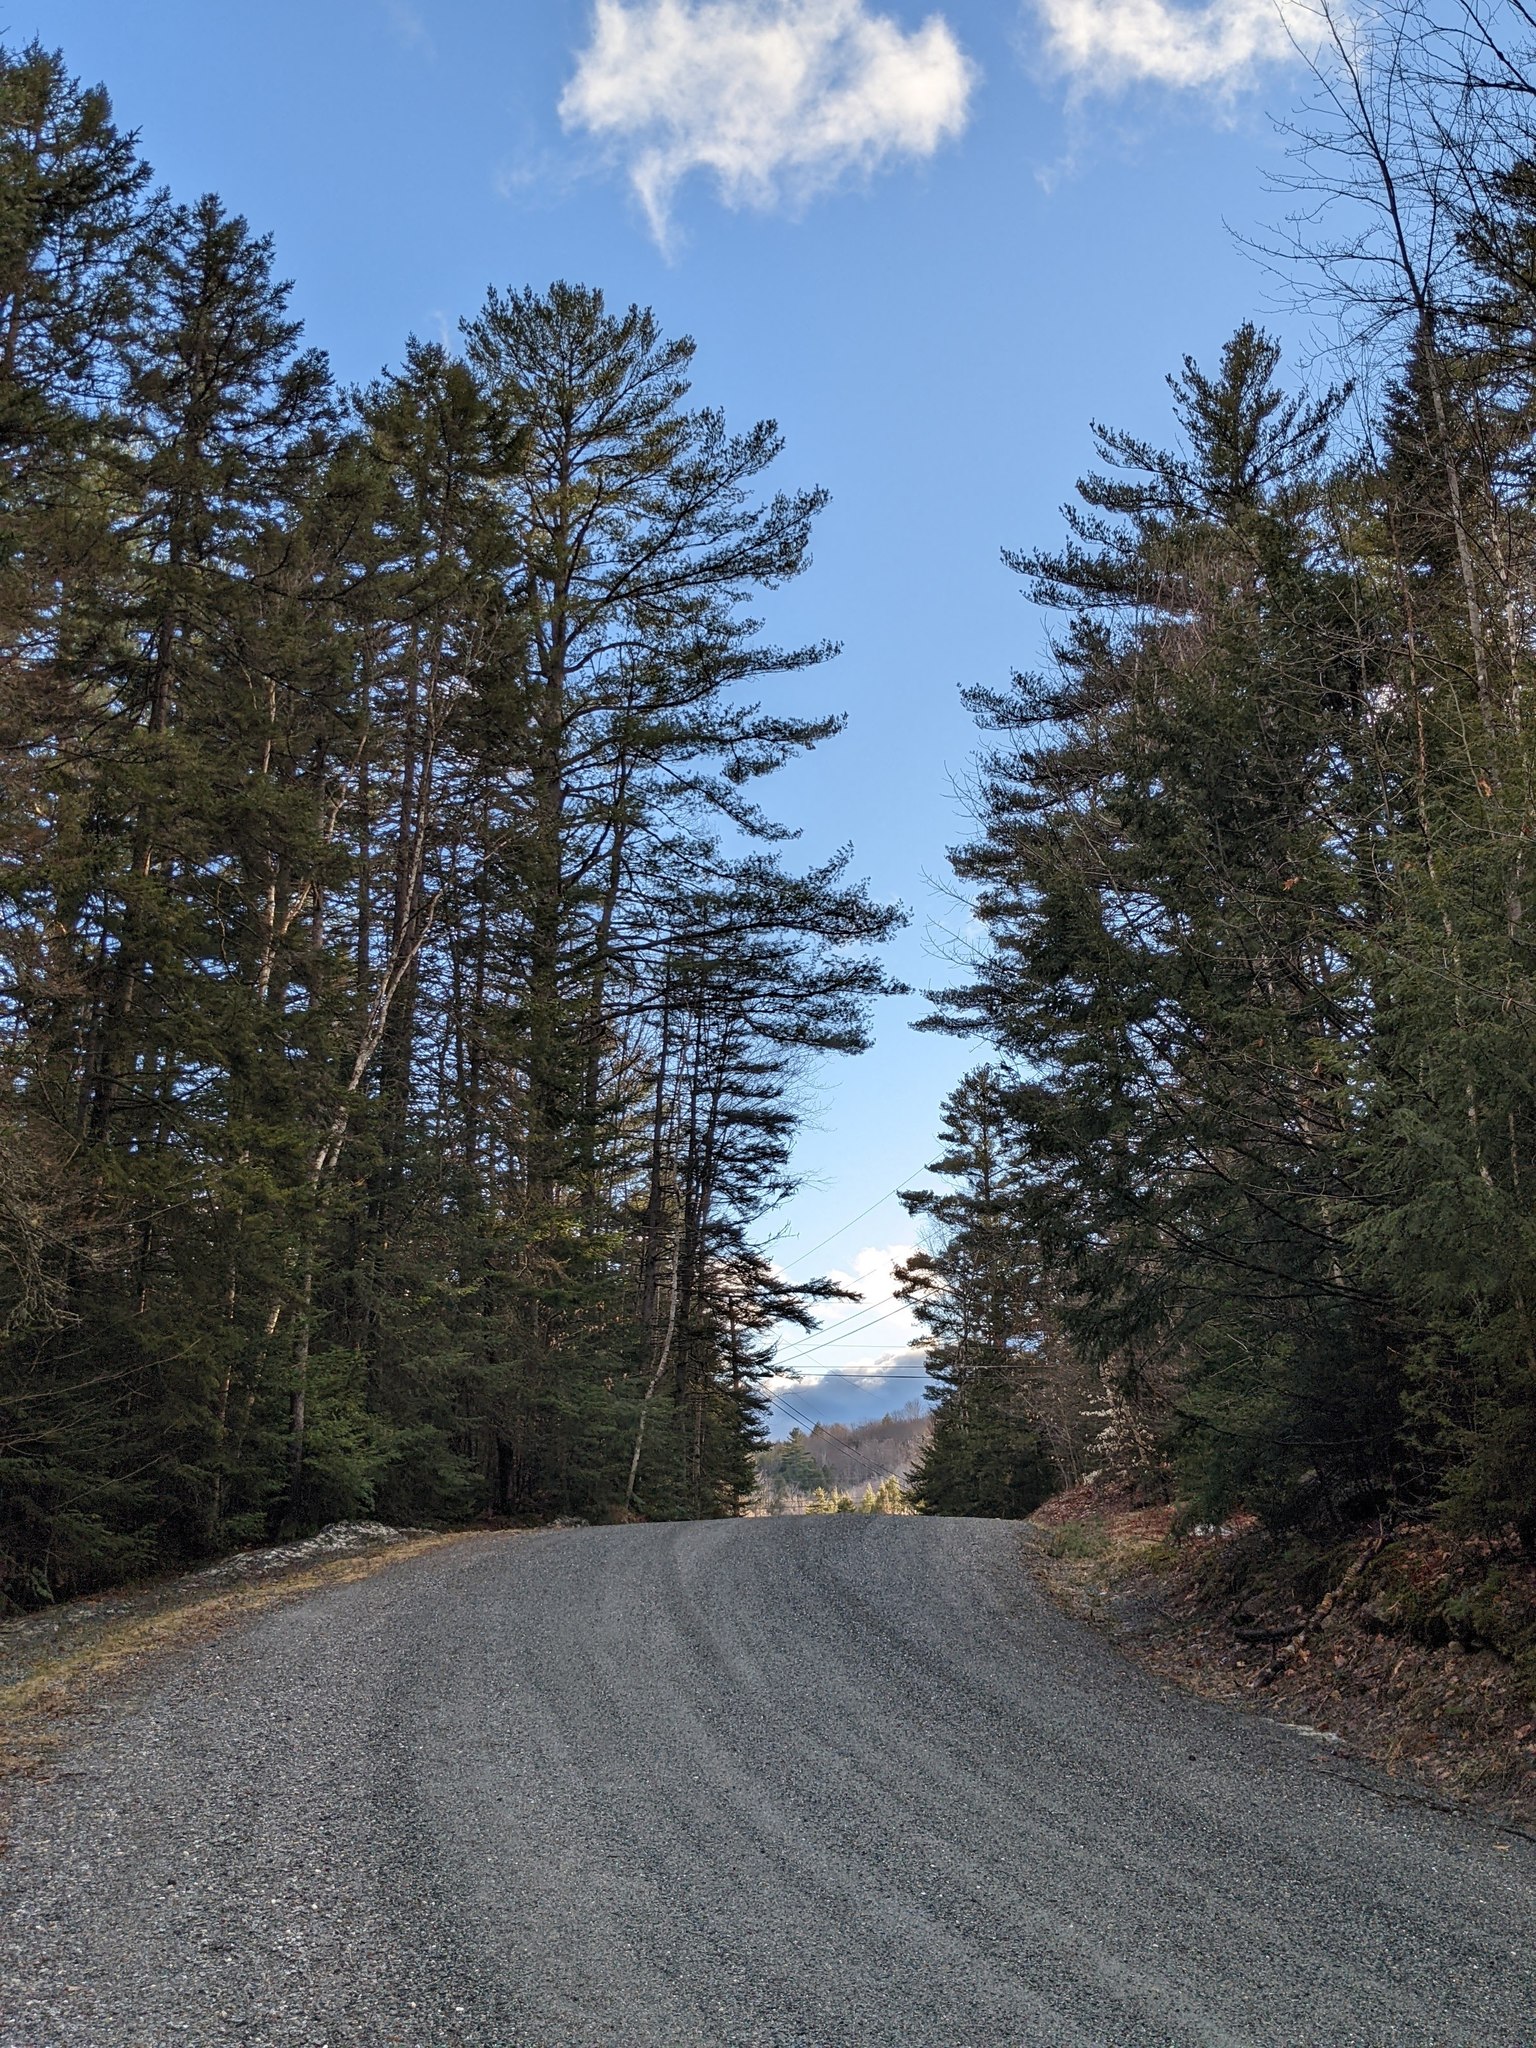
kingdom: Plantae
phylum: Tracheophyta
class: Pinopsida
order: Pinales
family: Pinaceae
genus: Pinus
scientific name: Pinus strobus
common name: Weymouth pine
